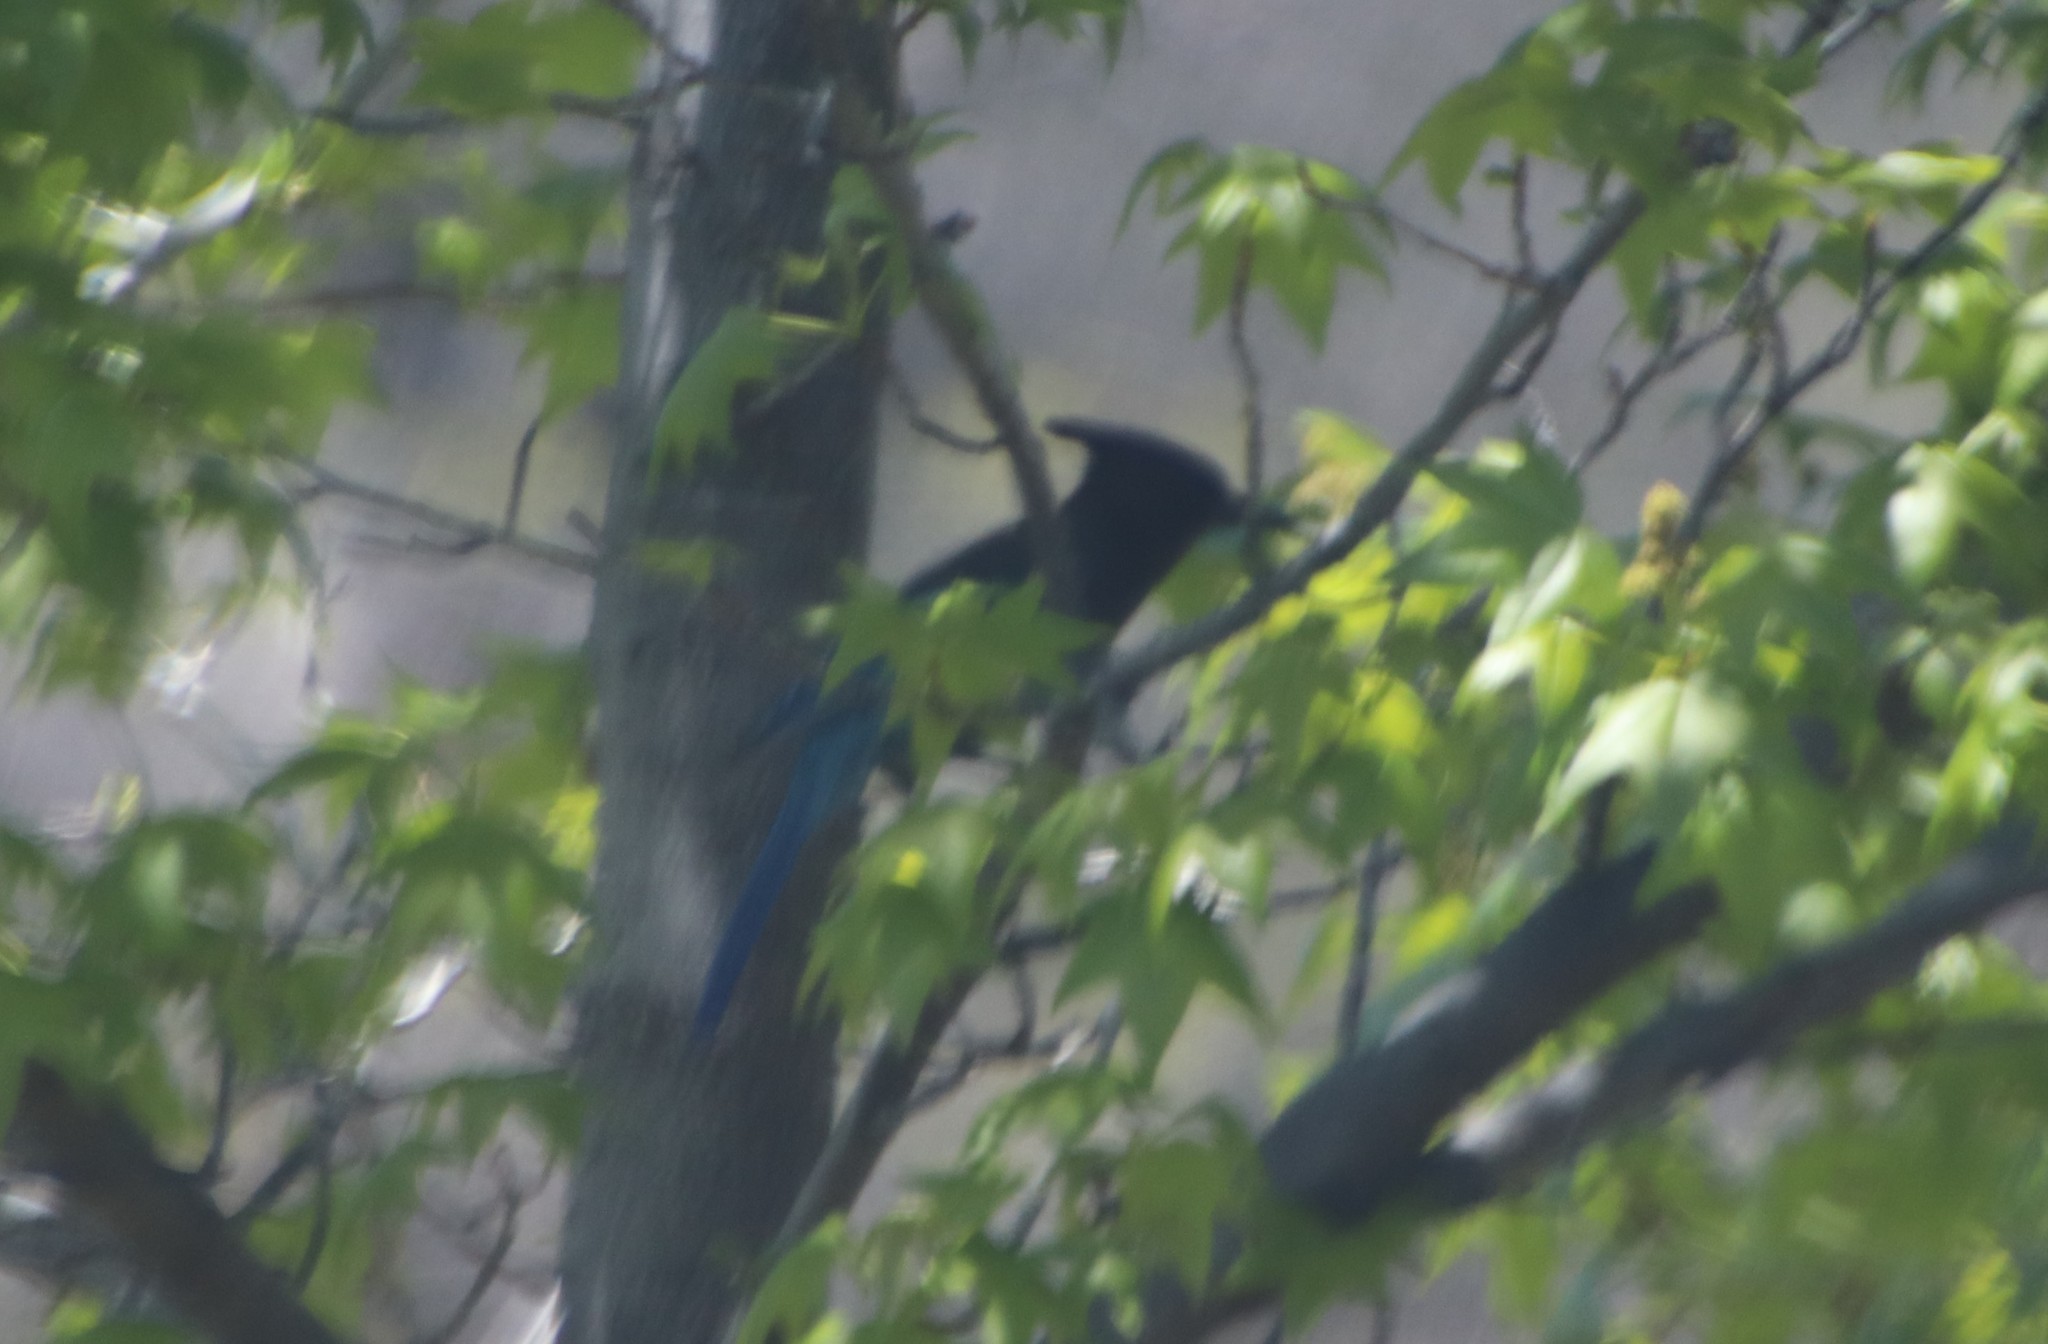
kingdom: Animalia
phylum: Chordata
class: Aves
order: Passeriformes
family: Corvidae
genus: Cyanocitta
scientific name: Cyanocitta stelleri
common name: Steller's jay
